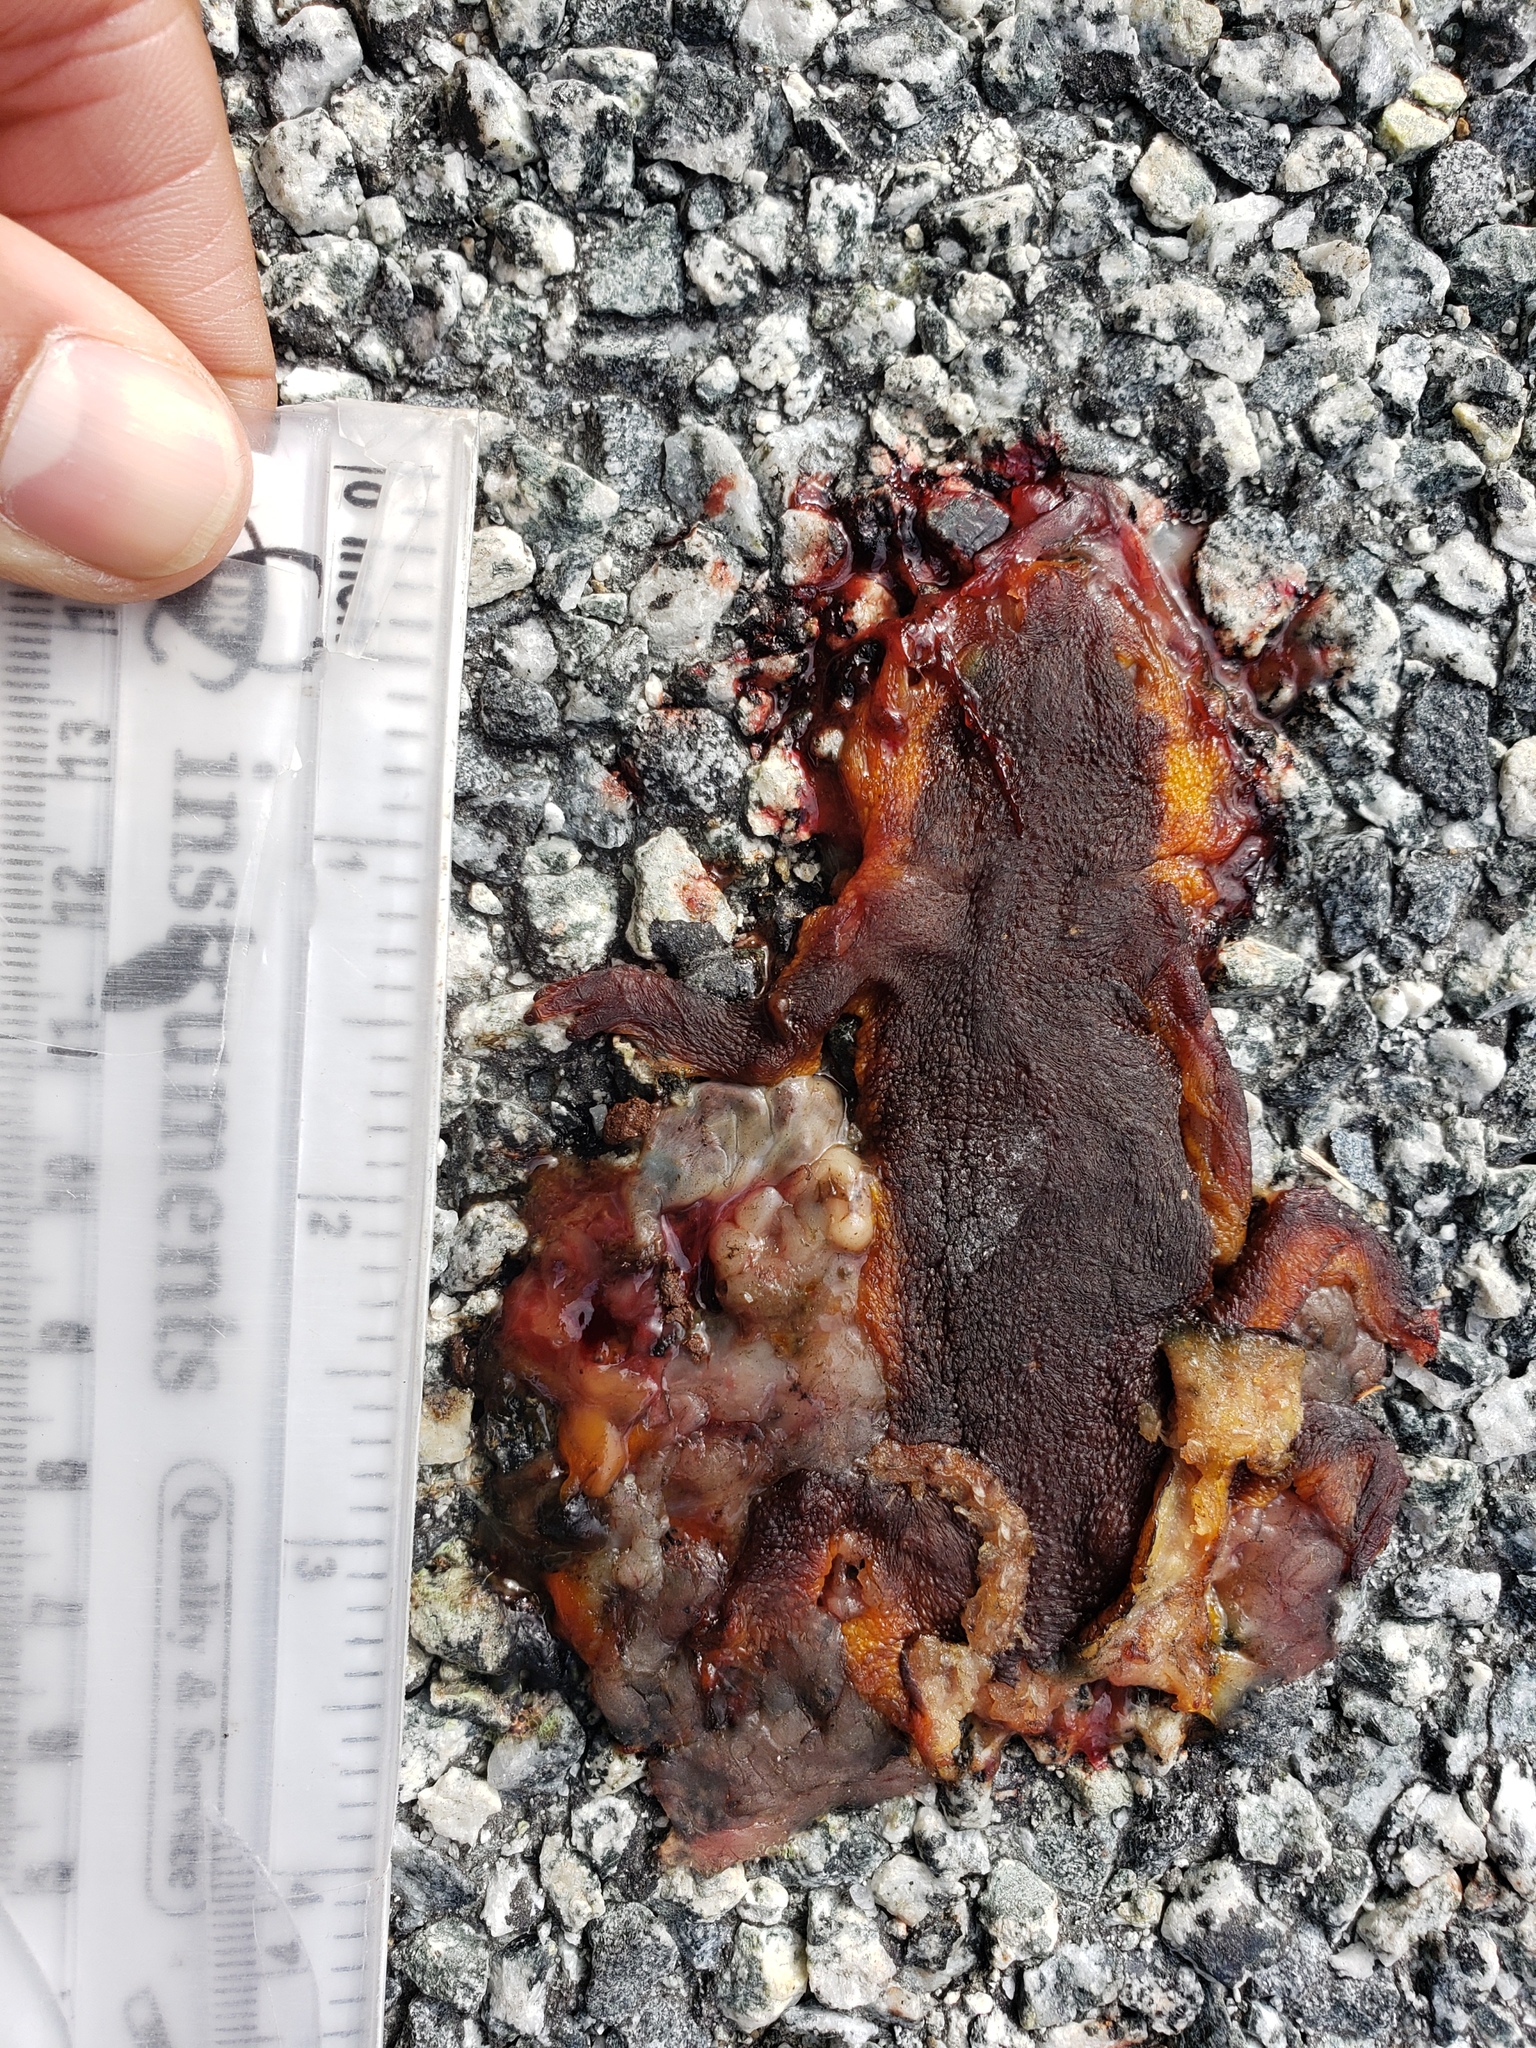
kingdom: Animalia
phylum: Chordata
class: Amphibia
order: Caudata
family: Salamandridae
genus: Taricha
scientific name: Taricha
